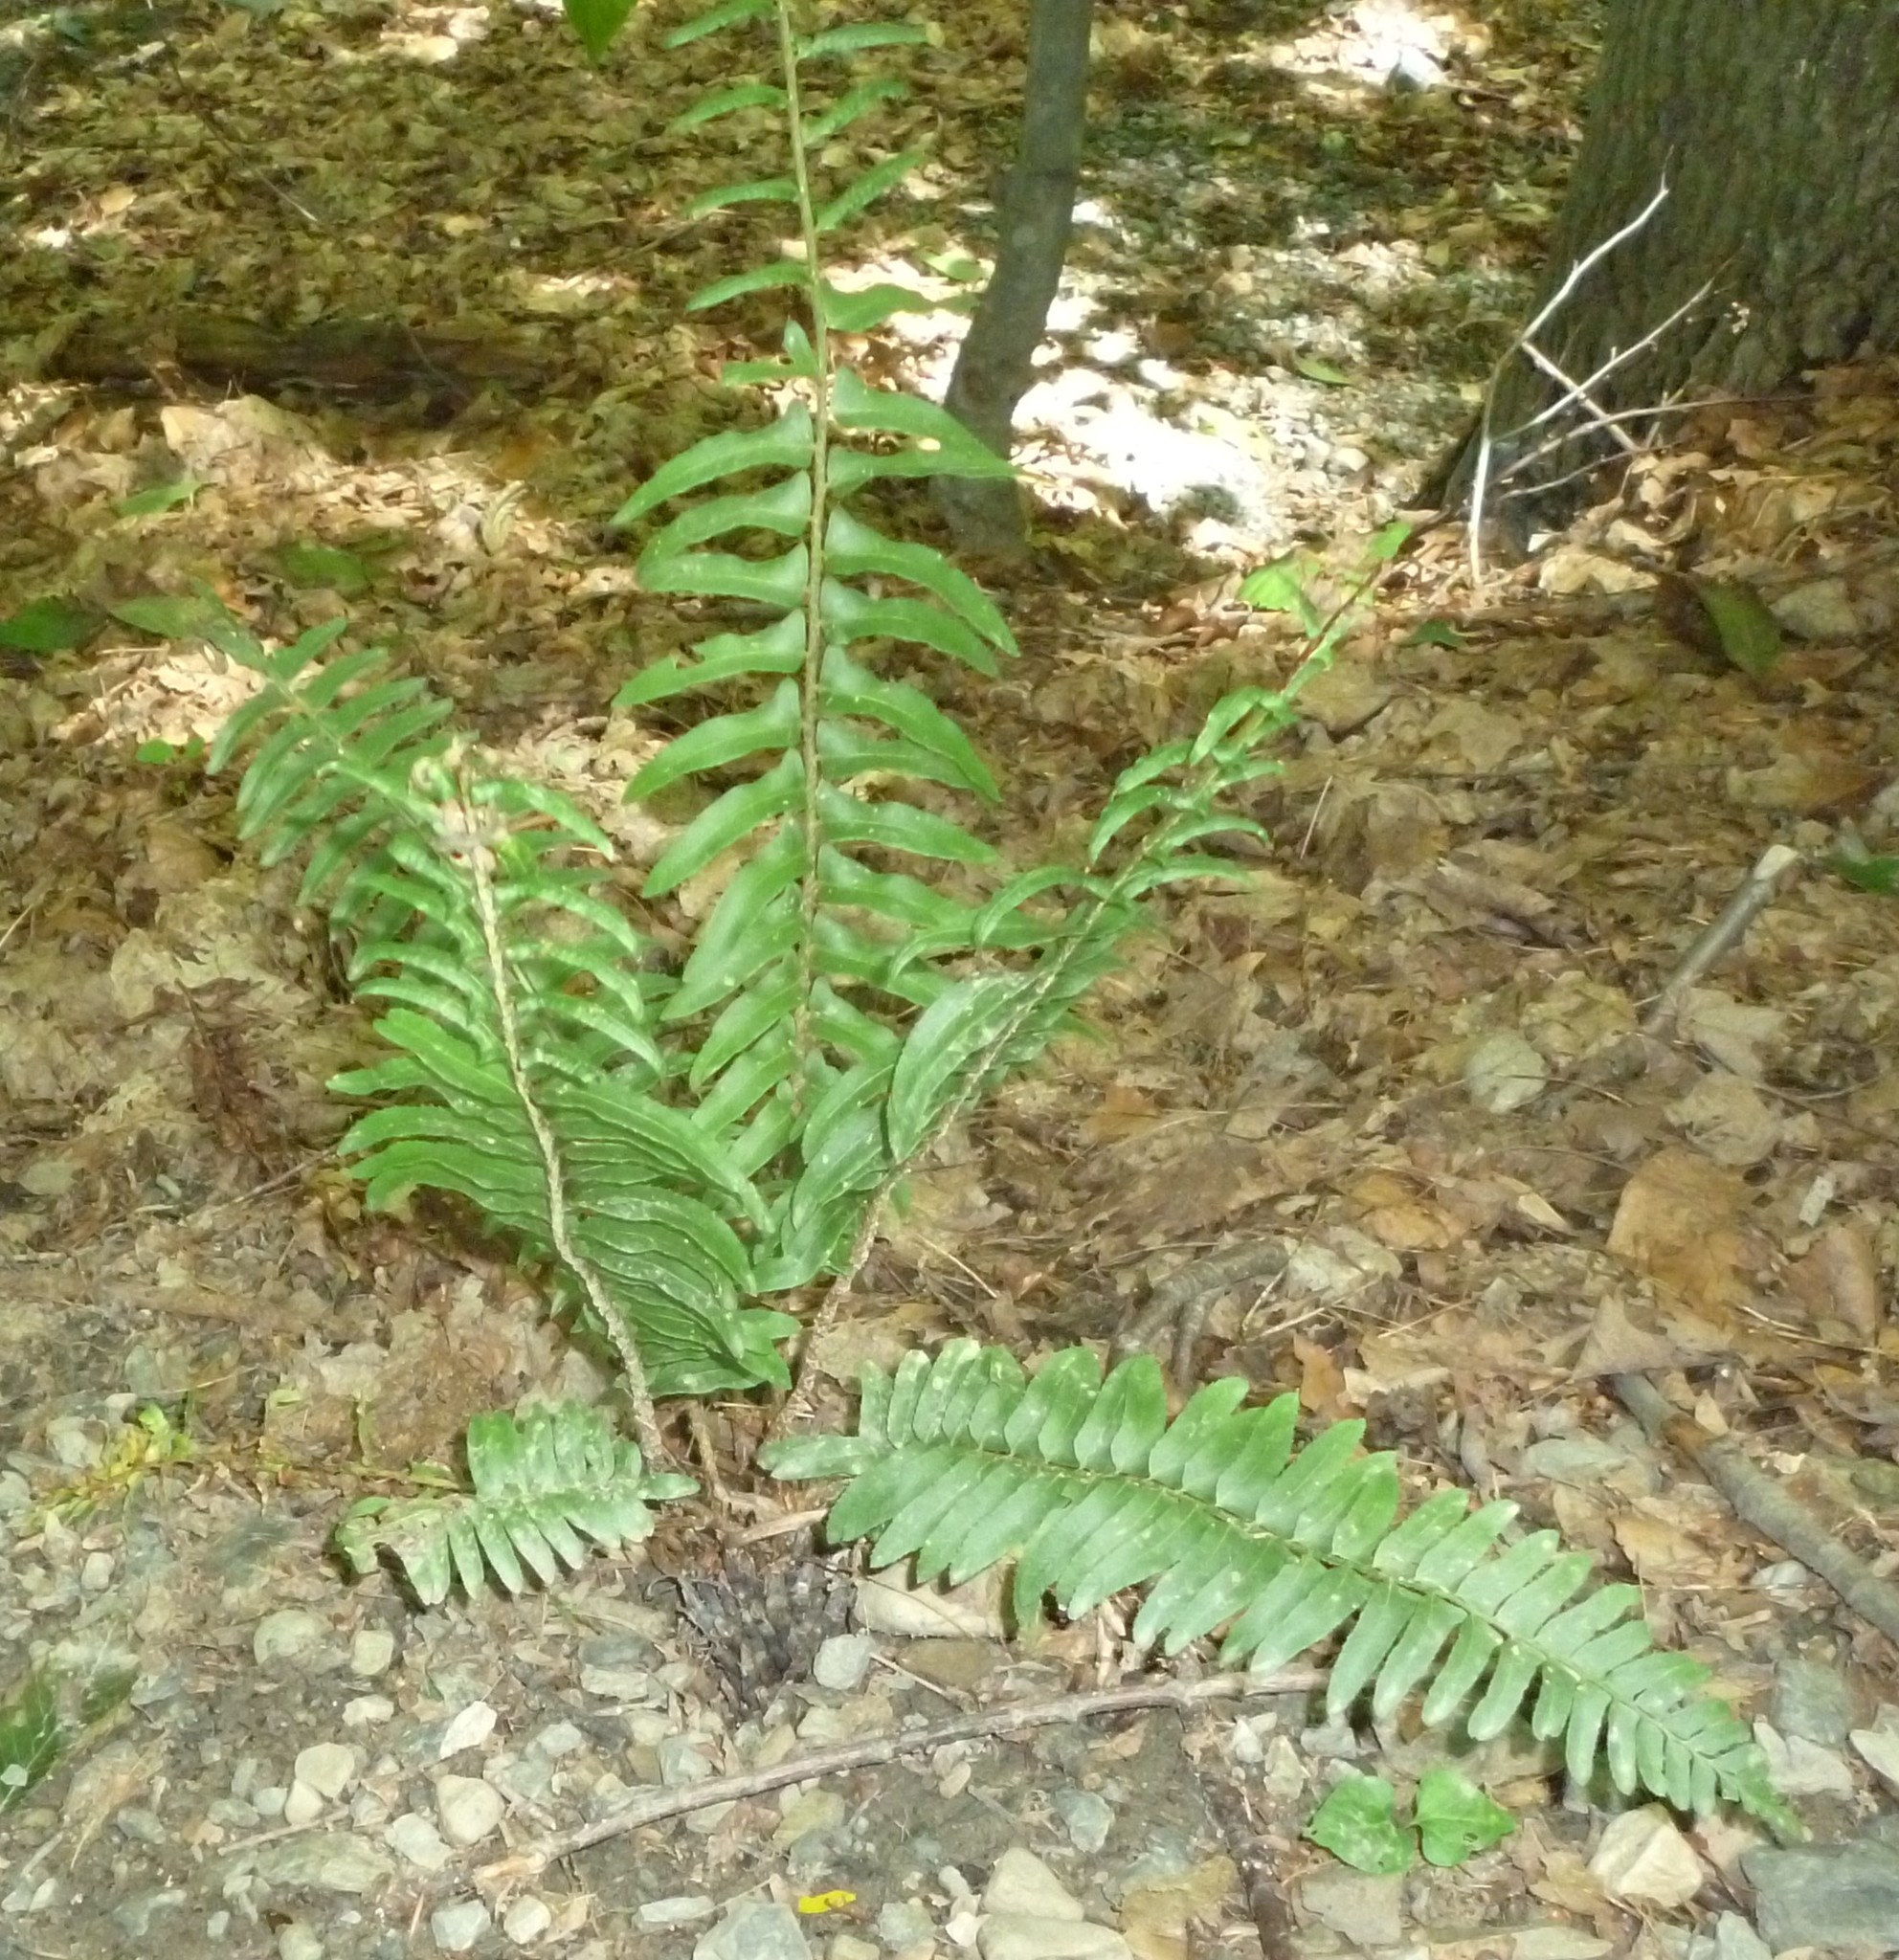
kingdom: Plantae
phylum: Tracheophyta
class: Polypodiopsida
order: Polypodiales
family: Dryopteridaceae
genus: Polystichum
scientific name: Polystichum acrostichoides
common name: Christmas fern
